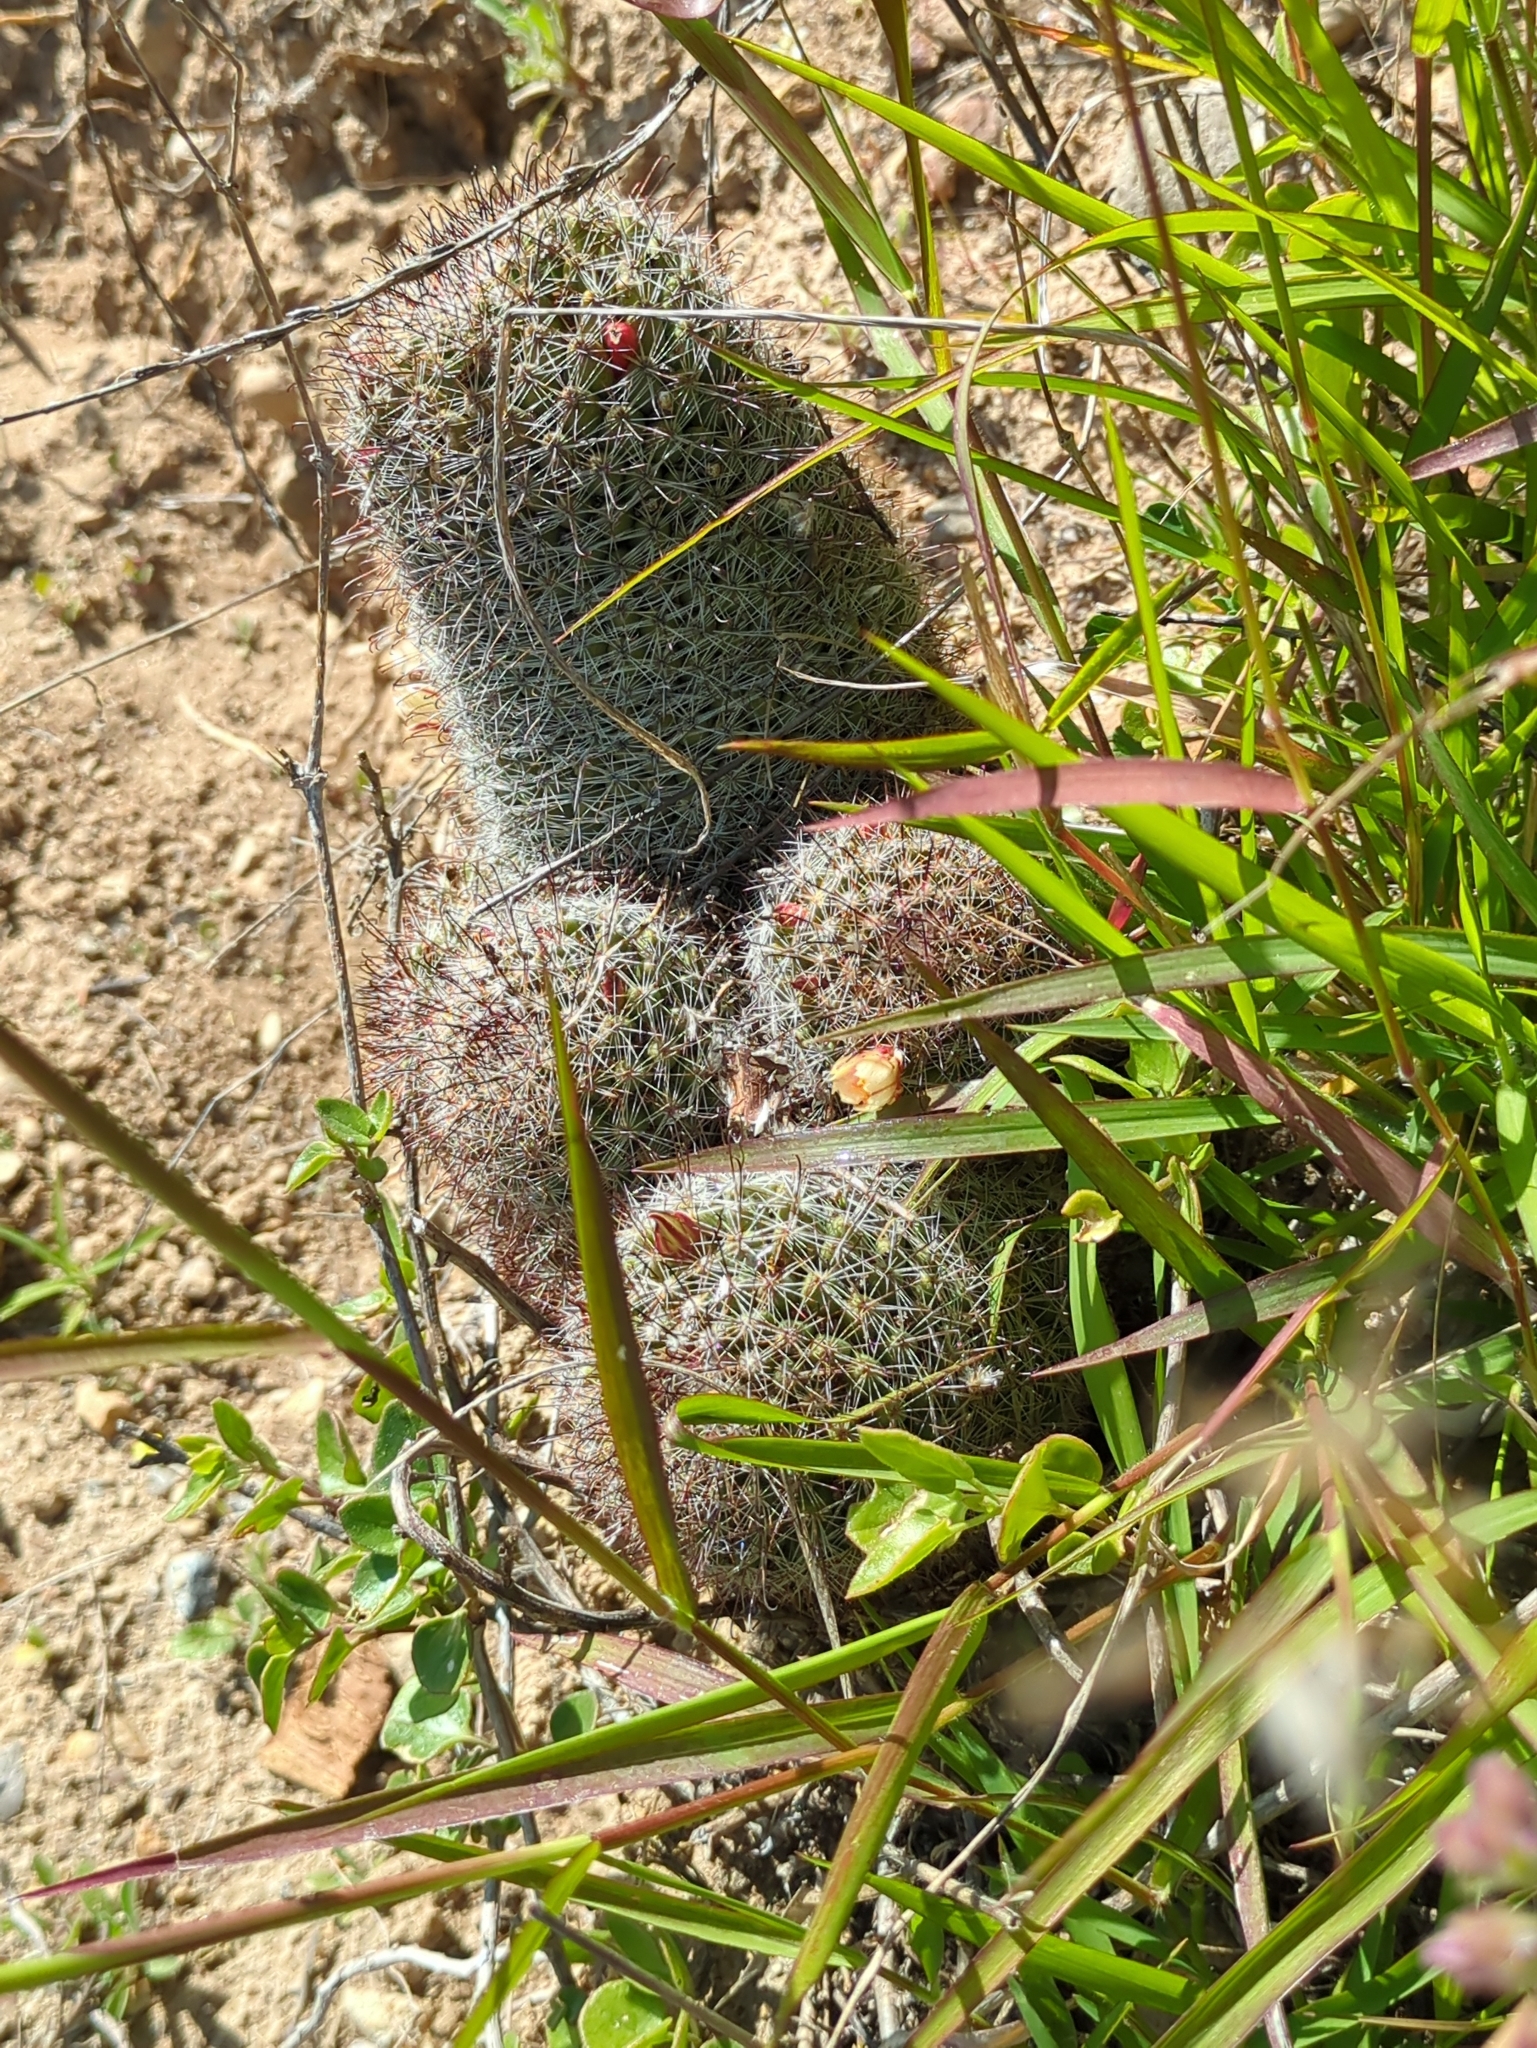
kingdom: Plantae
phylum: Tracheophyta
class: Magnoliopsida
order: Caryophyllales
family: Cactaceae
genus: Cochemiea
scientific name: Cochemiea dioica
